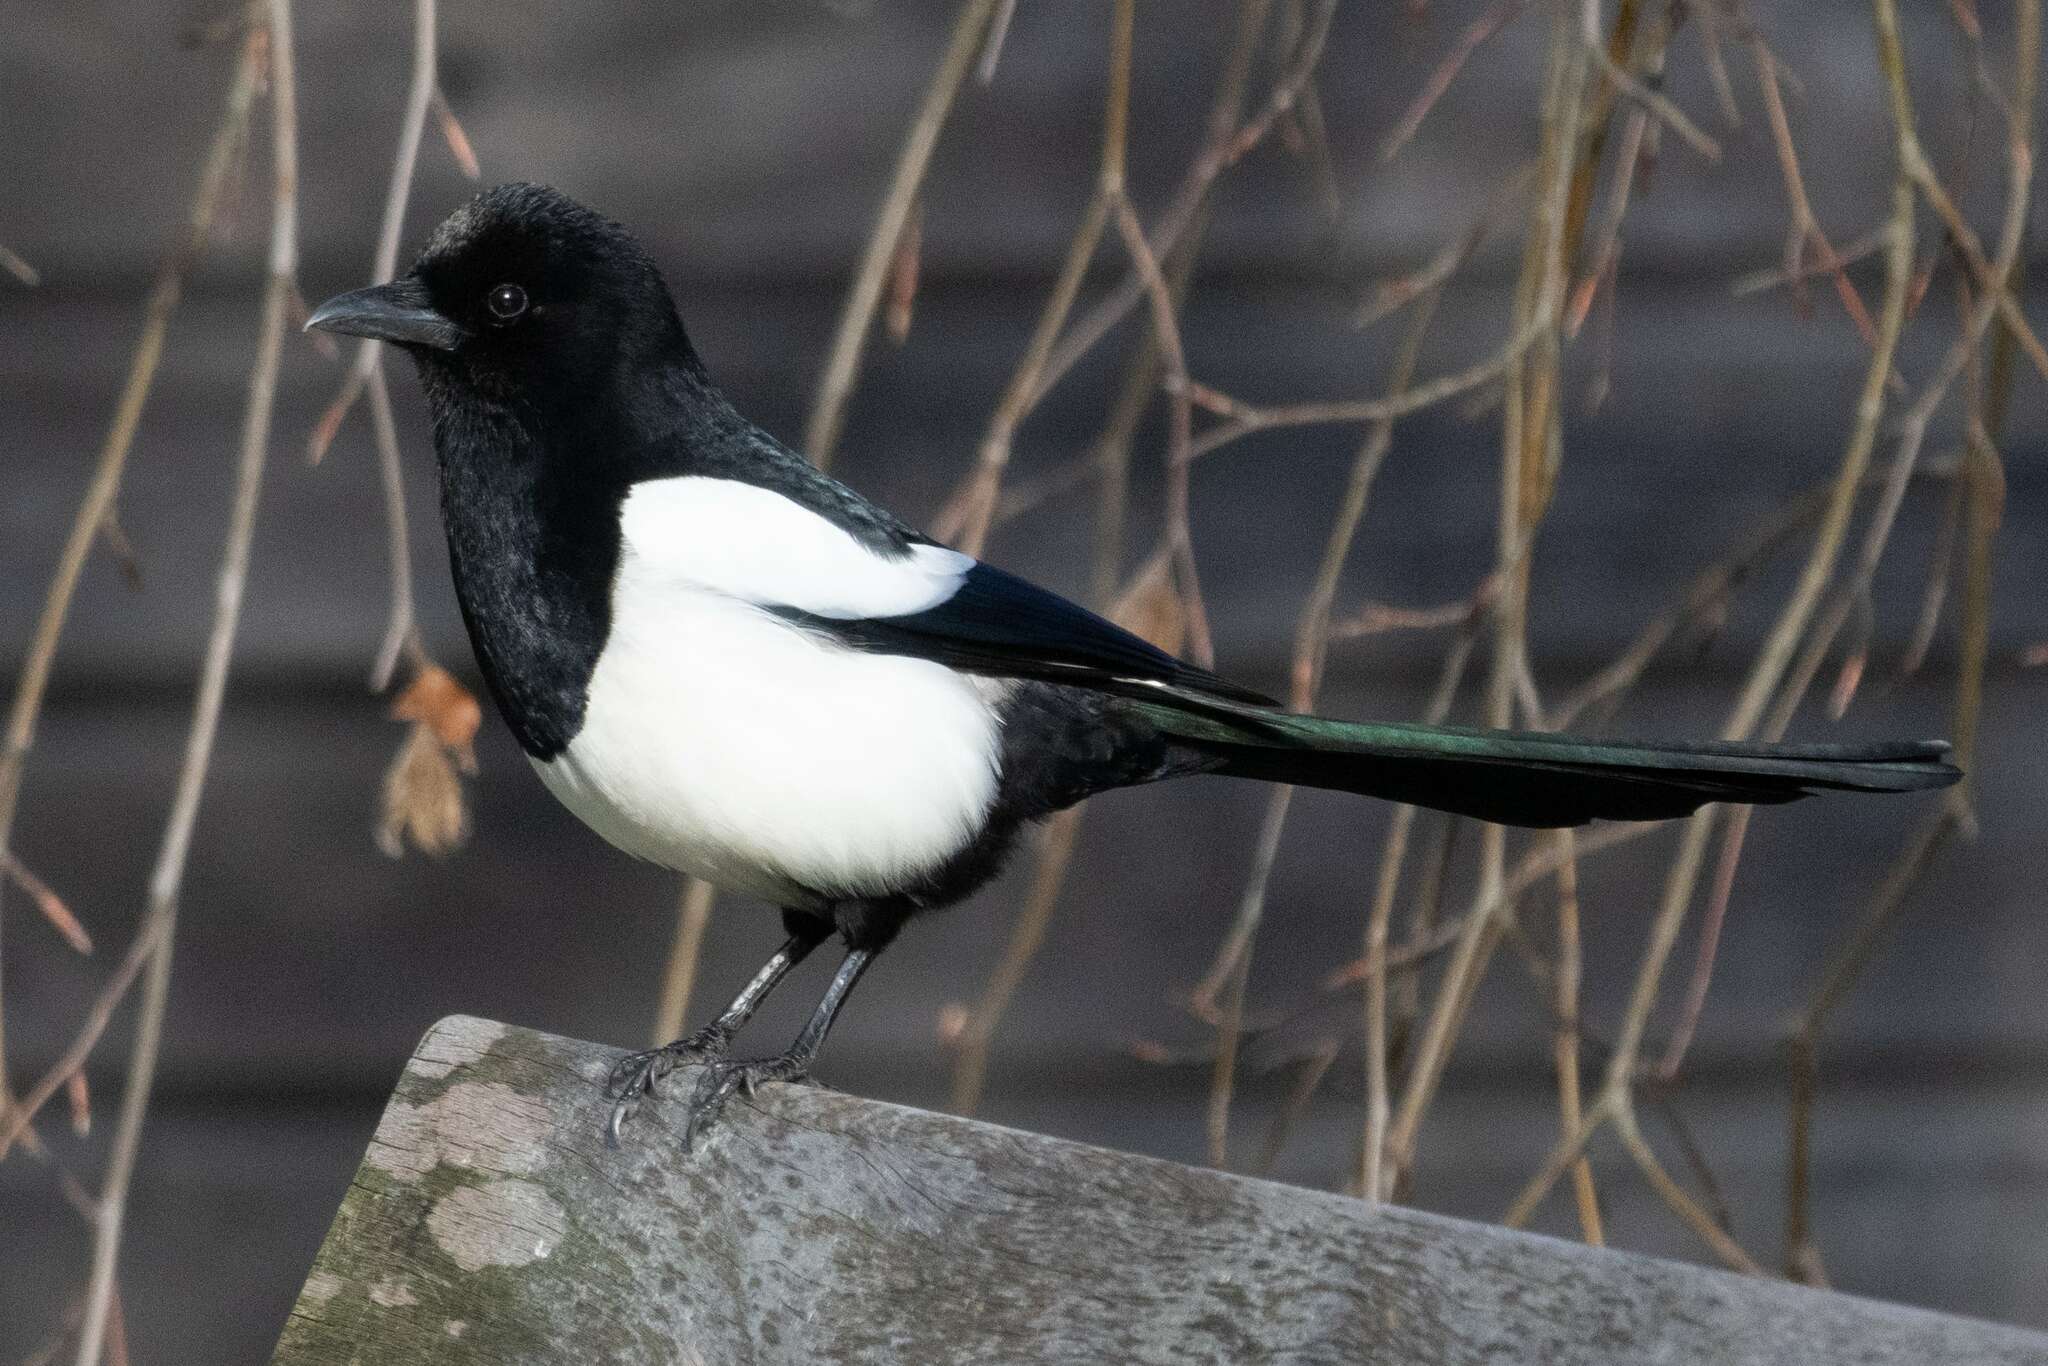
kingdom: Animalia
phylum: Chordata
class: Aves
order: Passeriformes
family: Corvidae
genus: Pica
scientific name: Pica pica
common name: Eurasian magpie
